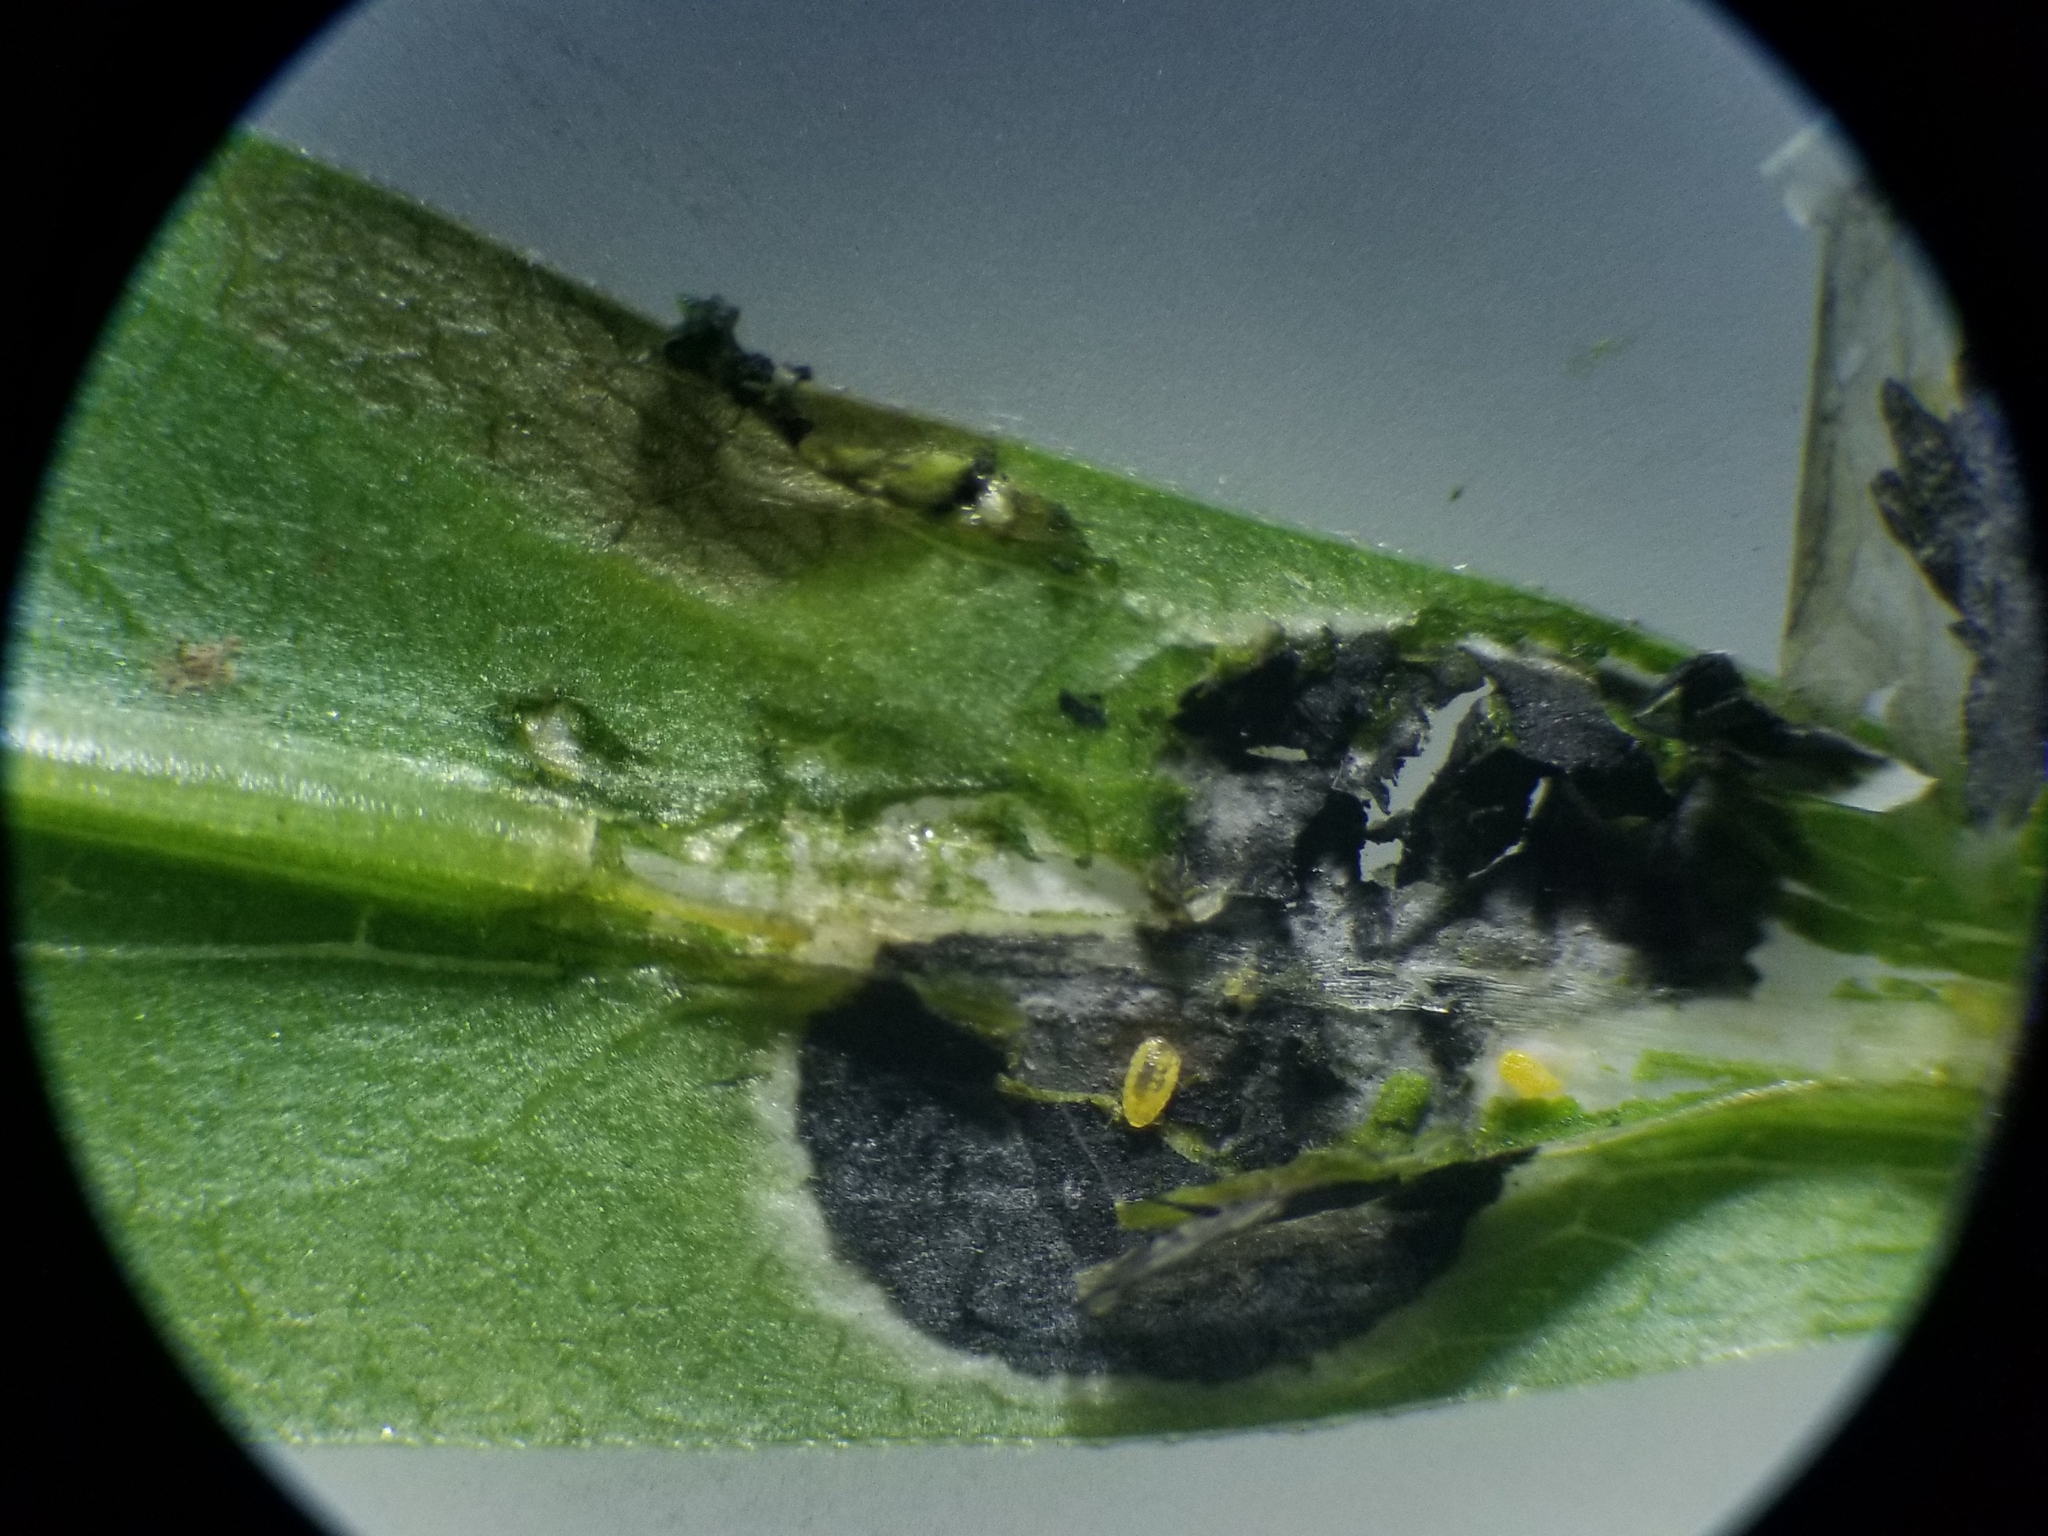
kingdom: Animalia
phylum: Arthropoda
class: Insecta
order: Diptera
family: Cecidomyiidae
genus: Asteromyia
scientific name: Asteromyia laeviana
